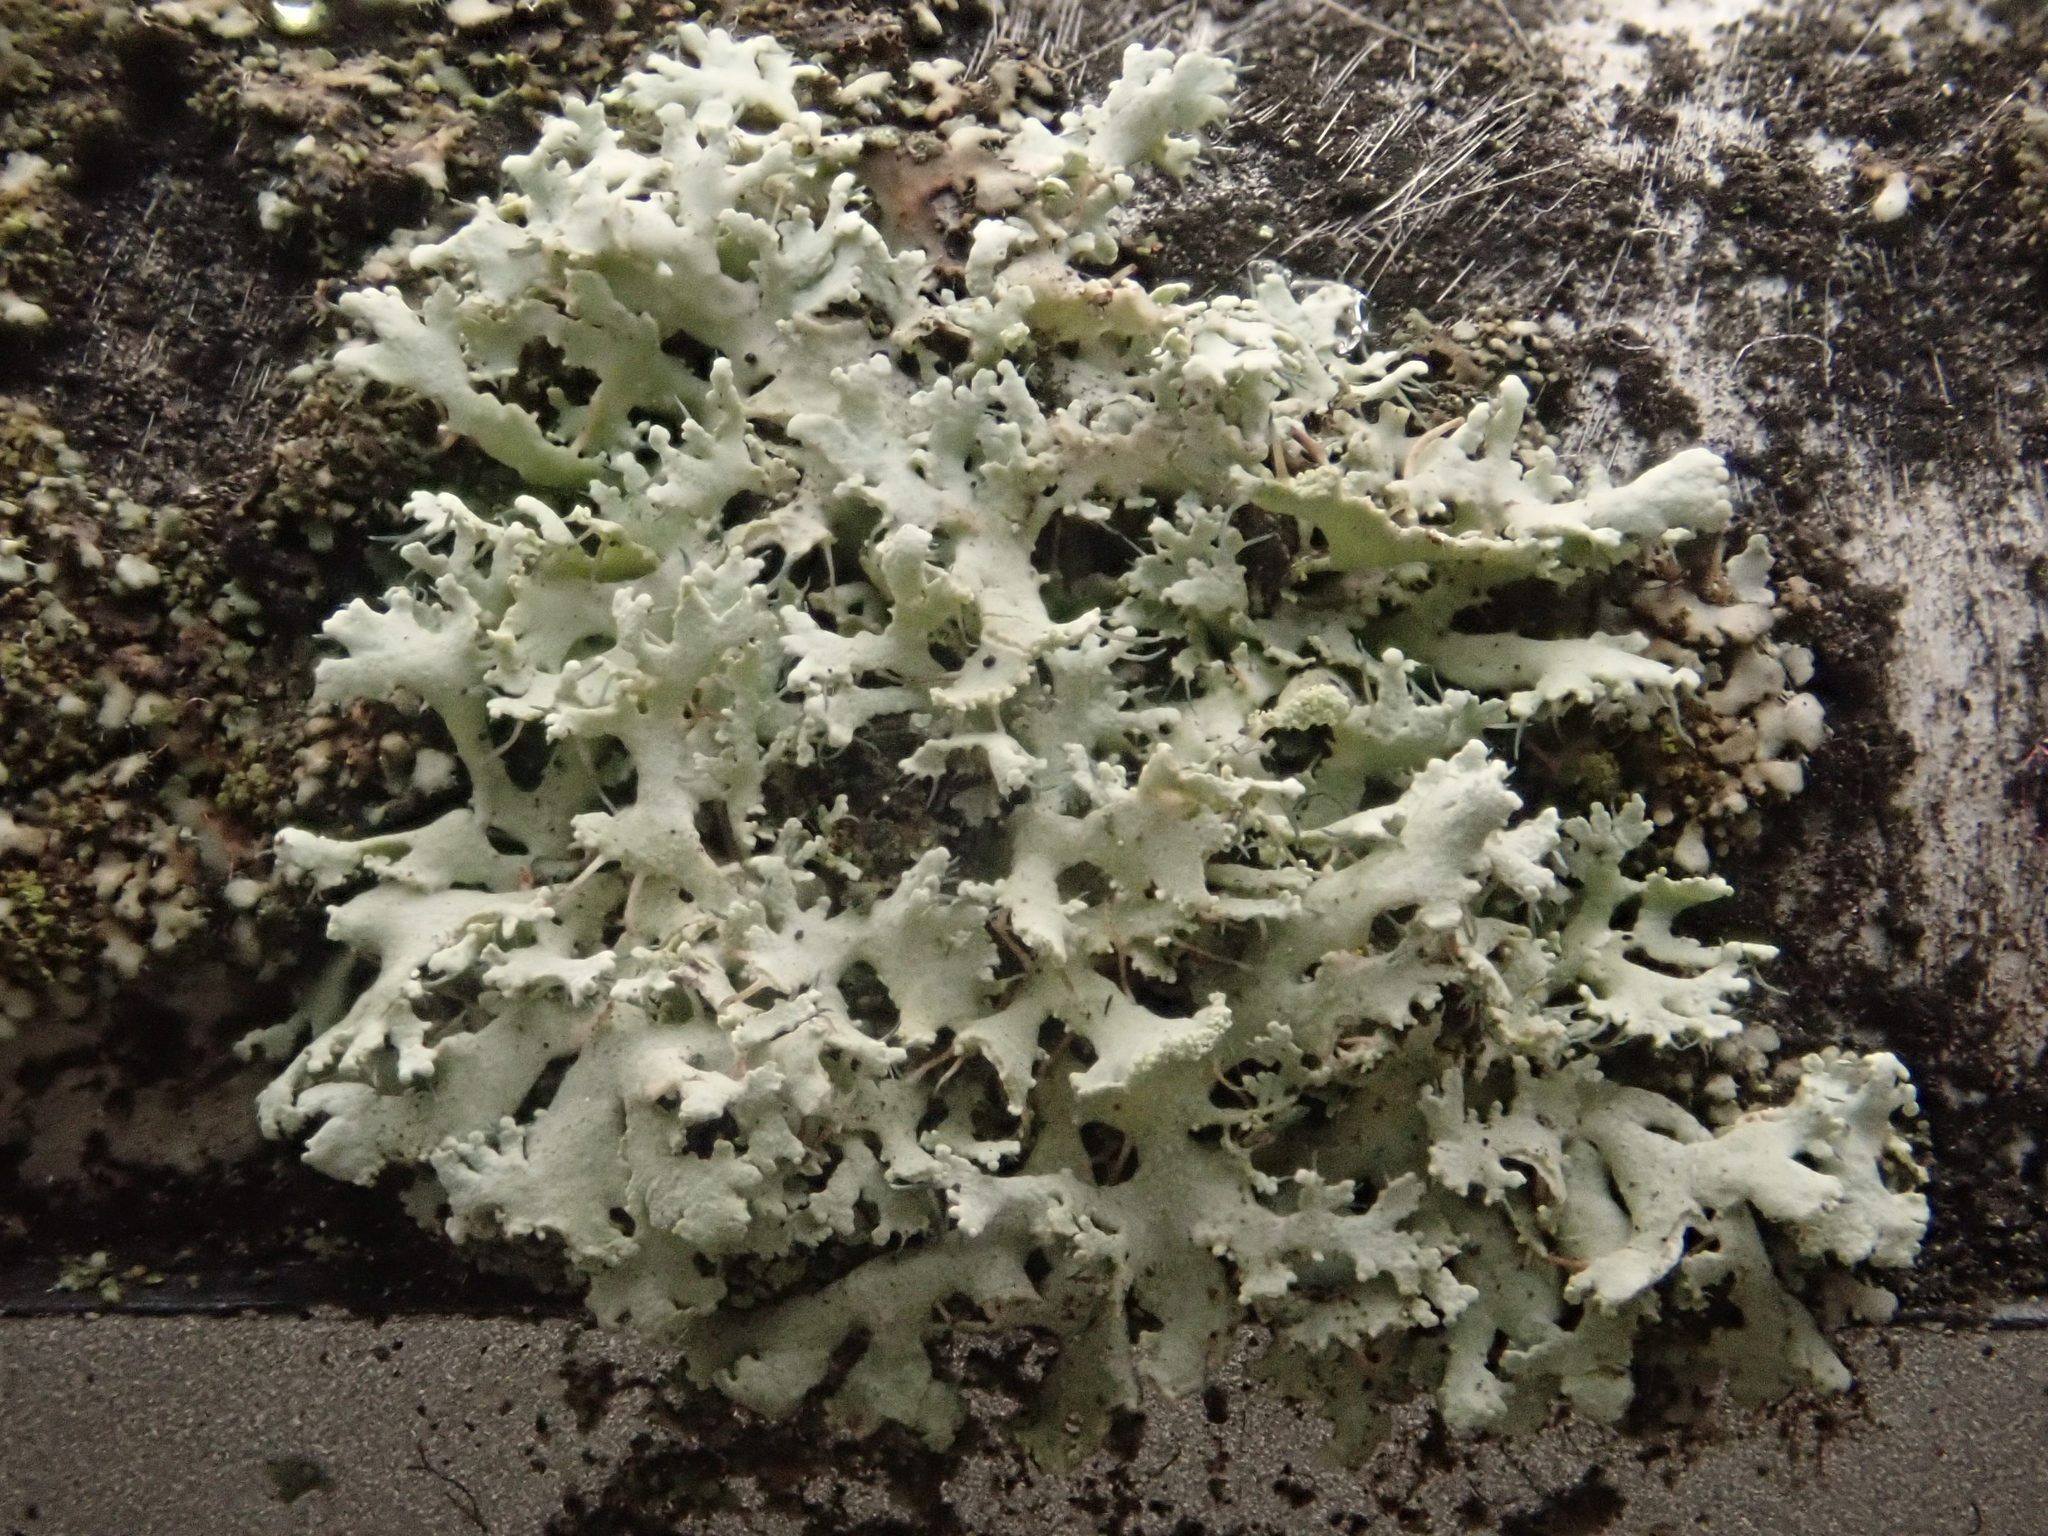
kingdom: Fungi
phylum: Ascomycota
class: Lecanoromycetes
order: Caliciales
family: Physciaceae
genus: Physcia
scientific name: Physcia tenella
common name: Fringed rosette lichen
